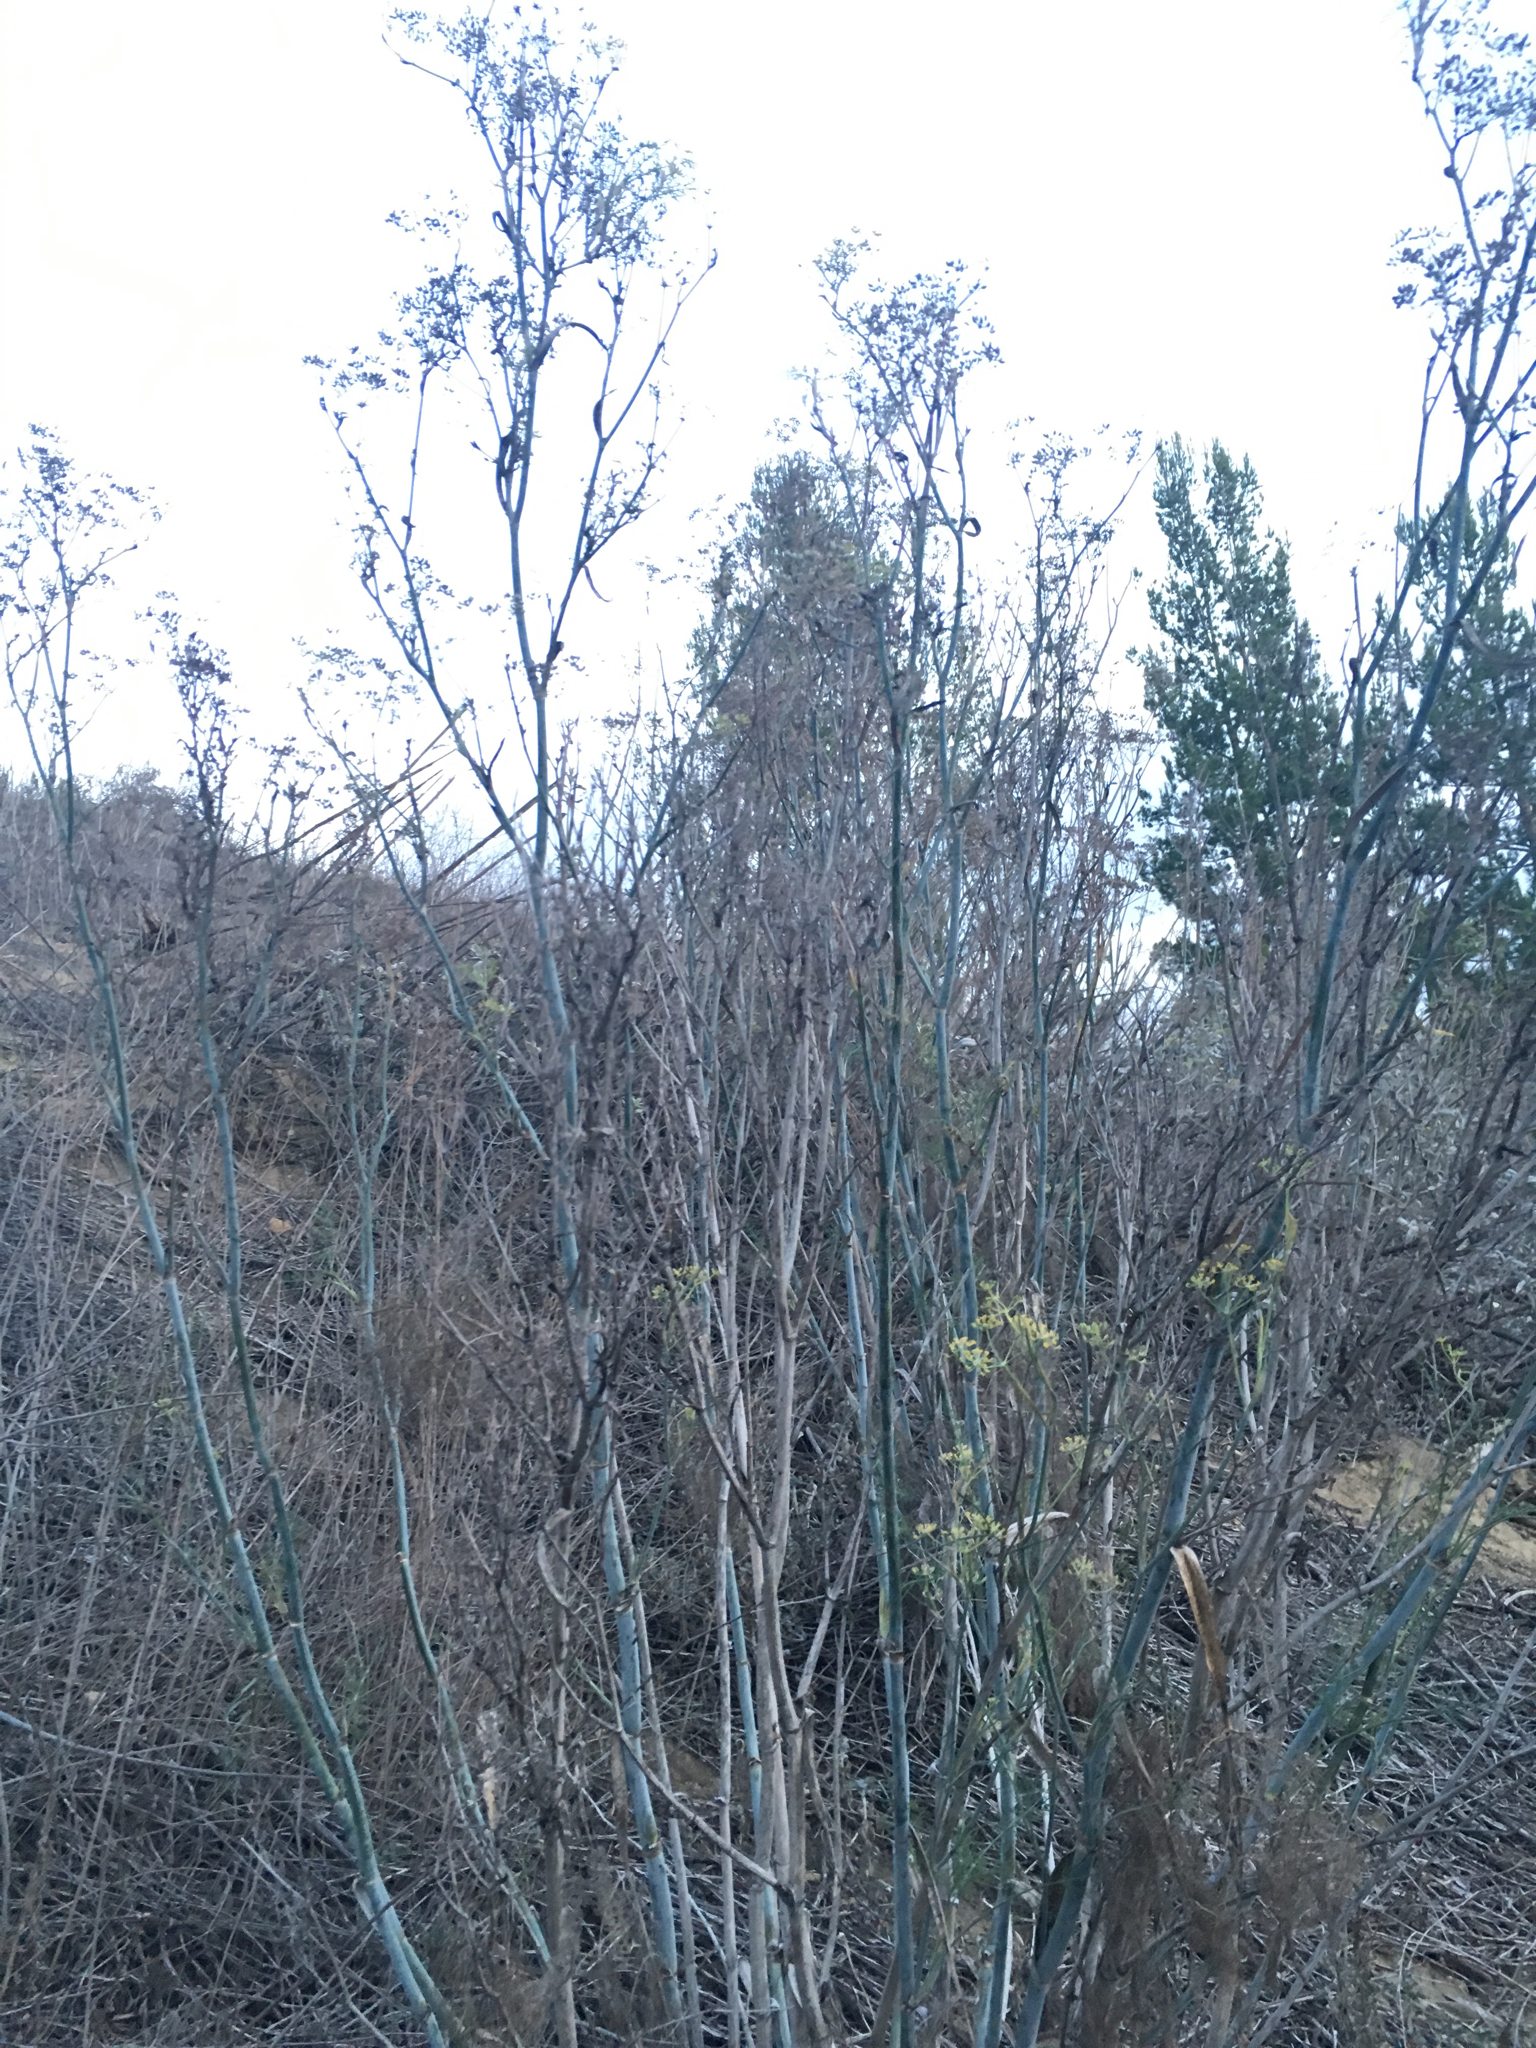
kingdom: Plantae
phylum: Tracheophyta
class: Magnoliopsida
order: Apiales
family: Apiaceae
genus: Foeniculum
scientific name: Foeniculum vulgare
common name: Fennel
